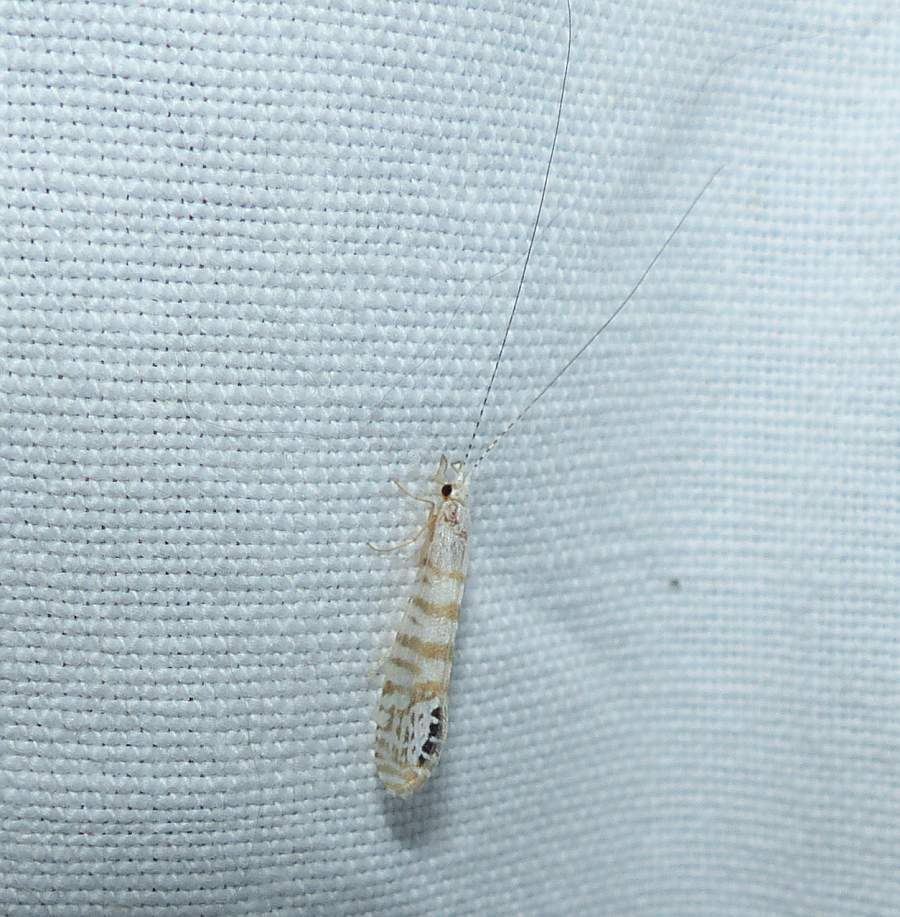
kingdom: Animalia
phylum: Arthropoda
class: Insecta
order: Trichoptera
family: Leptoceridae
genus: Nectopsyche
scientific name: Nectopsyche exquisita
